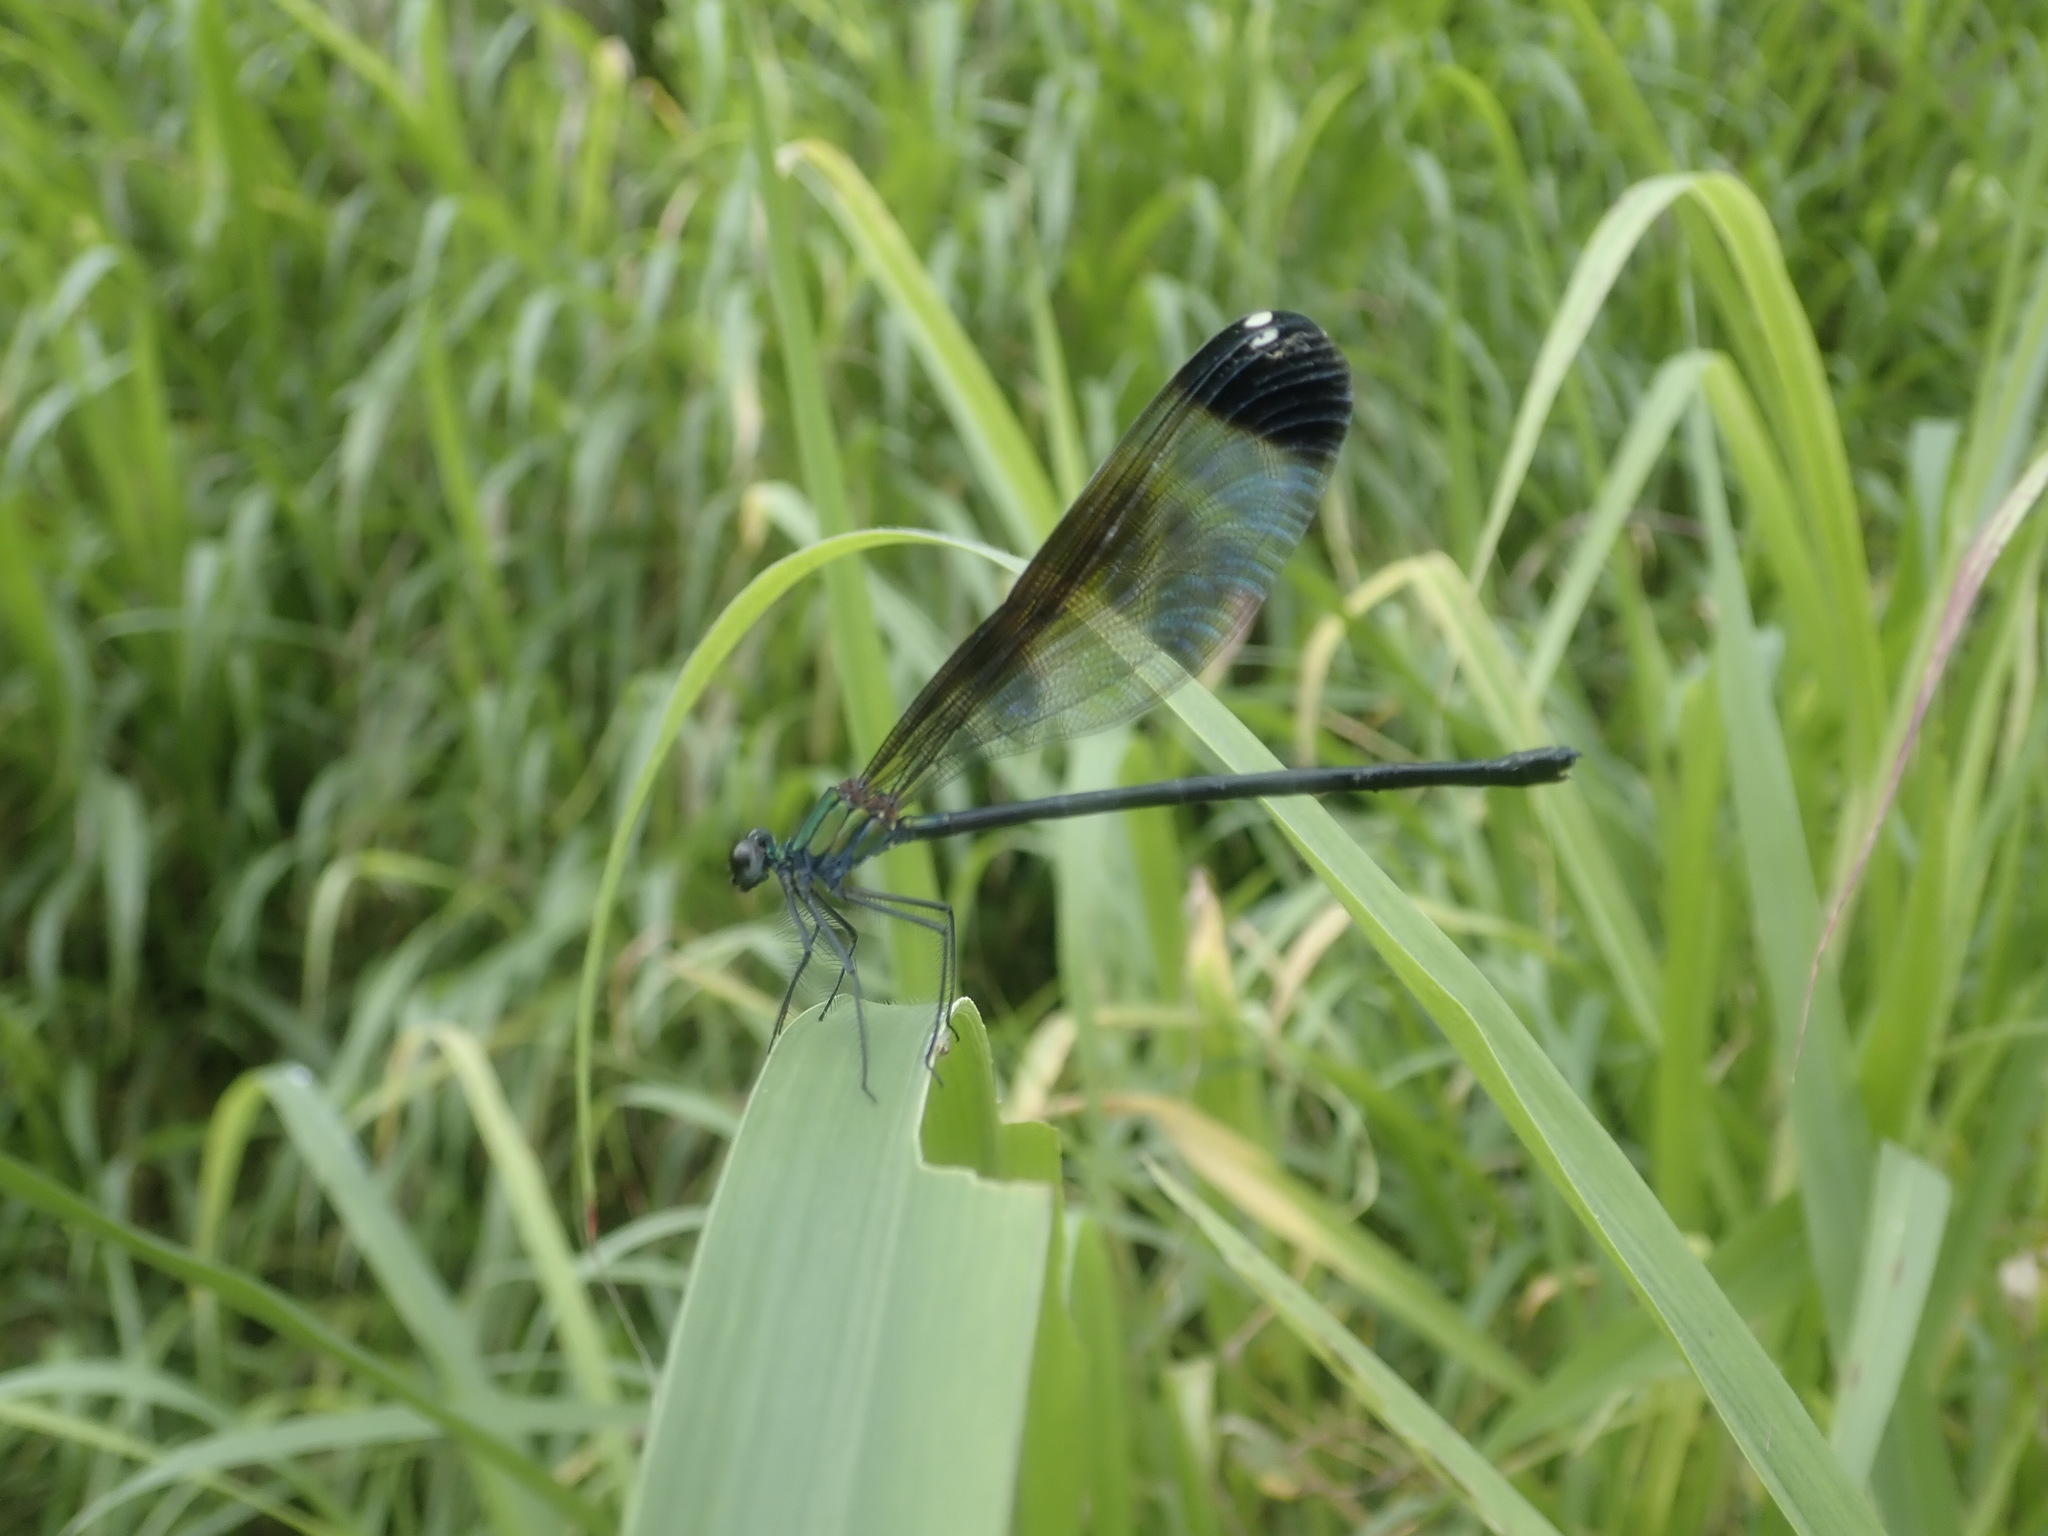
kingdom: Animalia
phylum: Arthropoda
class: Insecta
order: Odonata
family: Calopterygidae
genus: Psolodesmus
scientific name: Psolodesmus mandarinus
